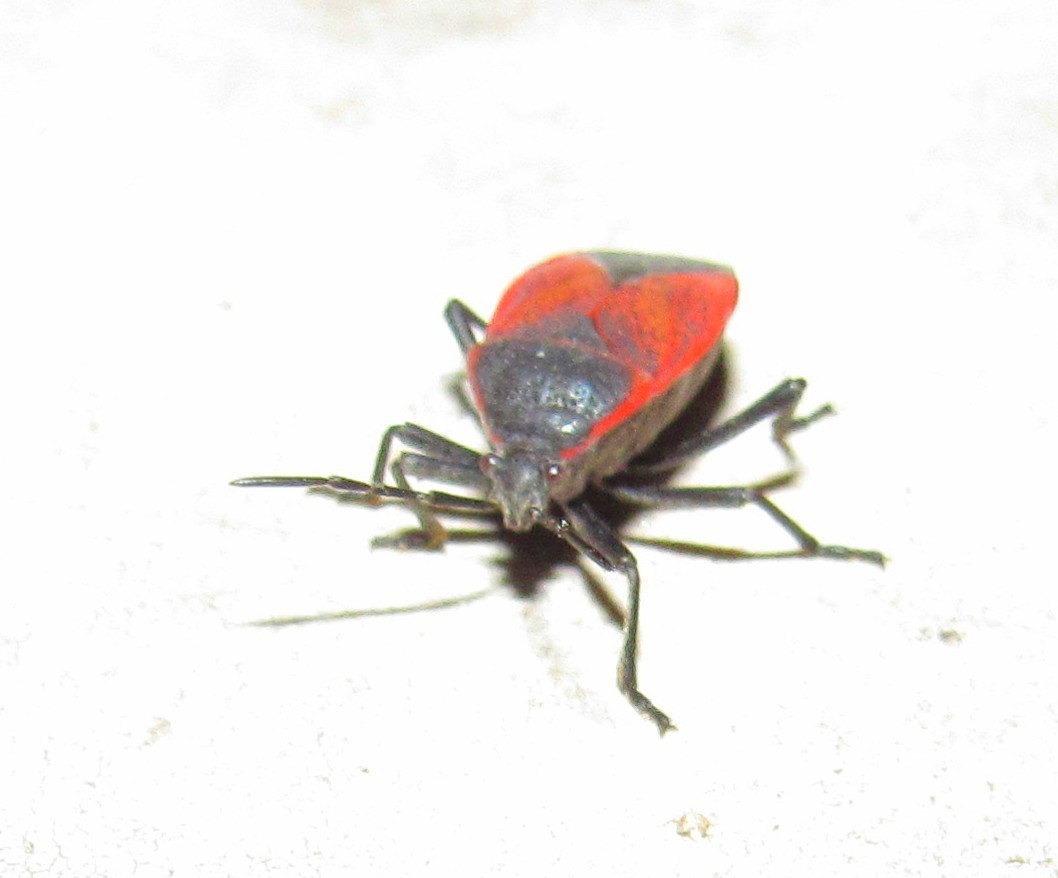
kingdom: Animalia
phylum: Arthropoda
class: Insecta
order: Hemiptera
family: Largidae
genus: Largus
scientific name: Largus rufipennis
